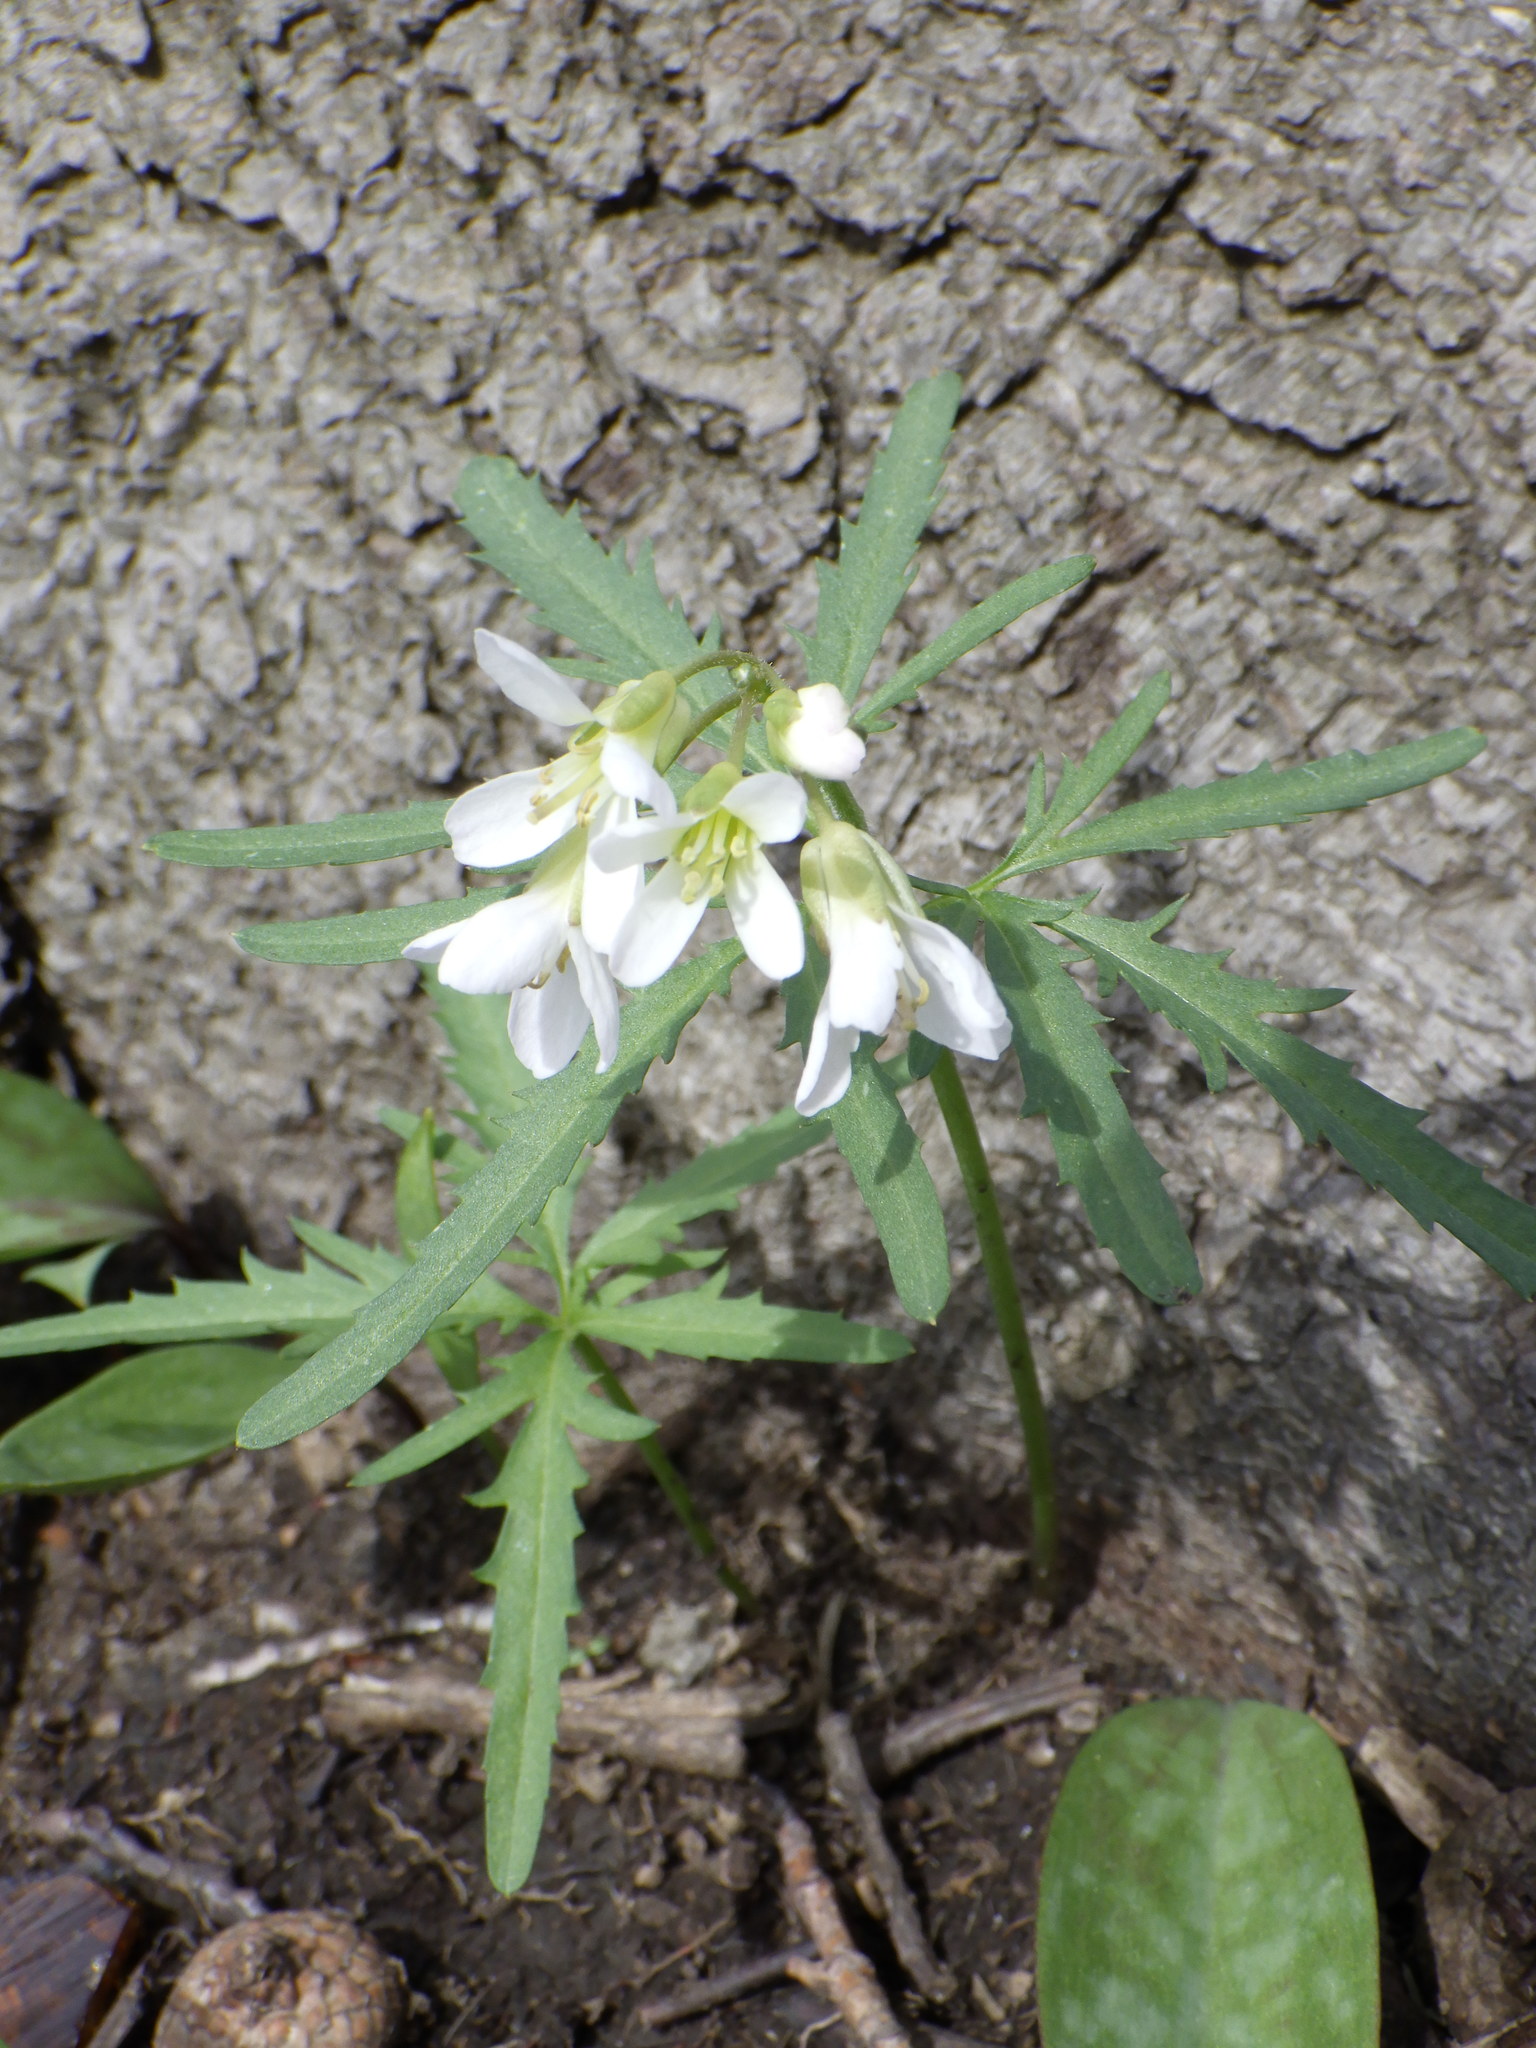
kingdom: Plantae
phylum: Tracheophyta
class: Magnoliopsida
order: Brassicales
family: Brassicaceae
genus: Cardamine
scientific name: Cardamine concatenata
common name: Cut-leaf toothcup
